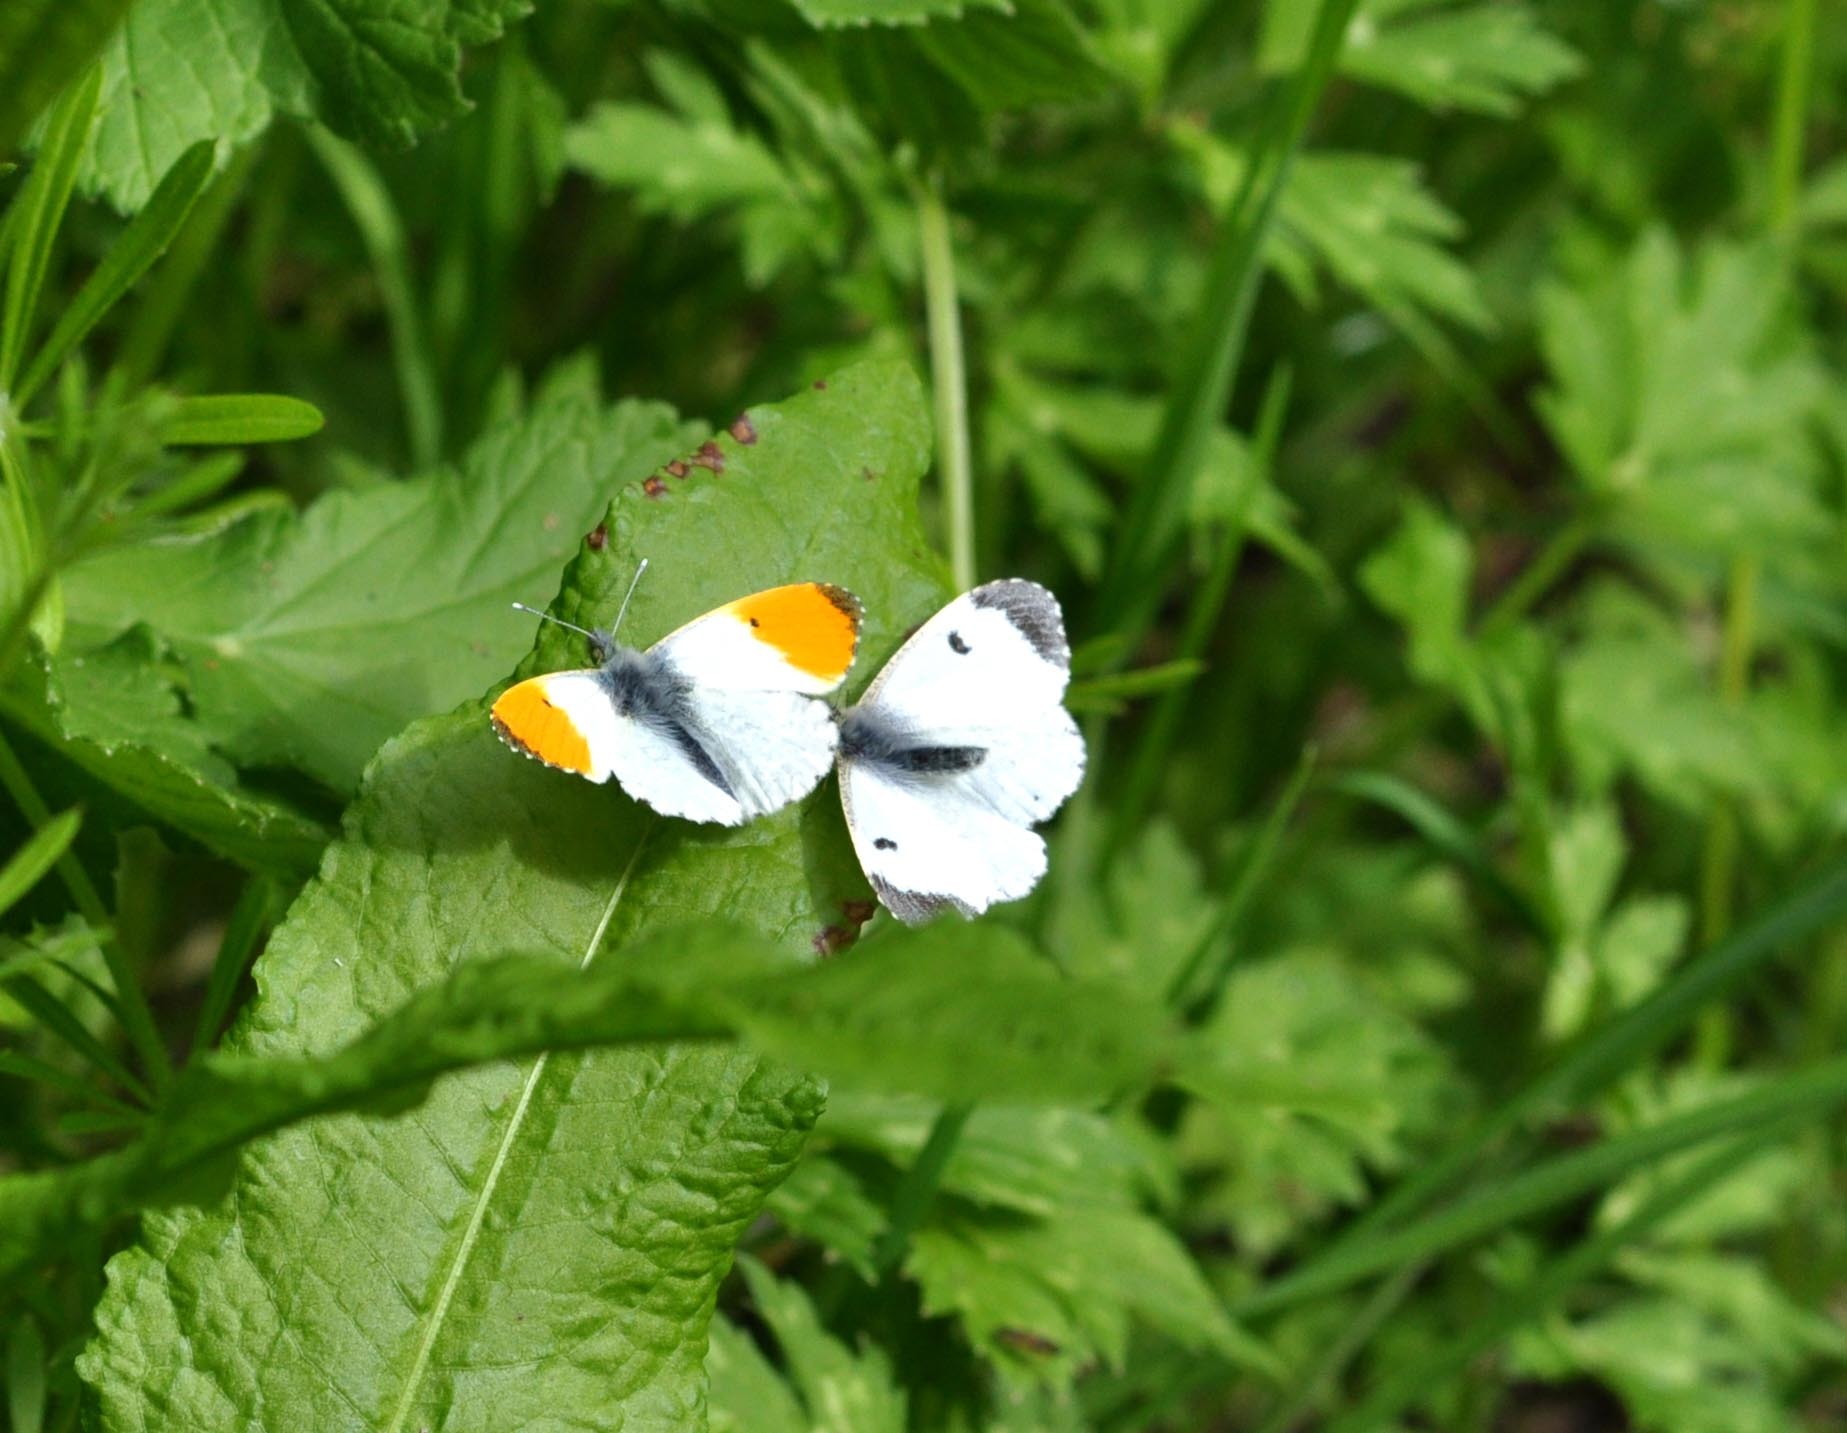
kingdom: Animalia
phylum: Arthropoda
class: Insecta
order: Lepidoptera
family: Pieridae
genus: Anthocharis
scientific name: Anthocharis cardamines
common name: Orange-tip
